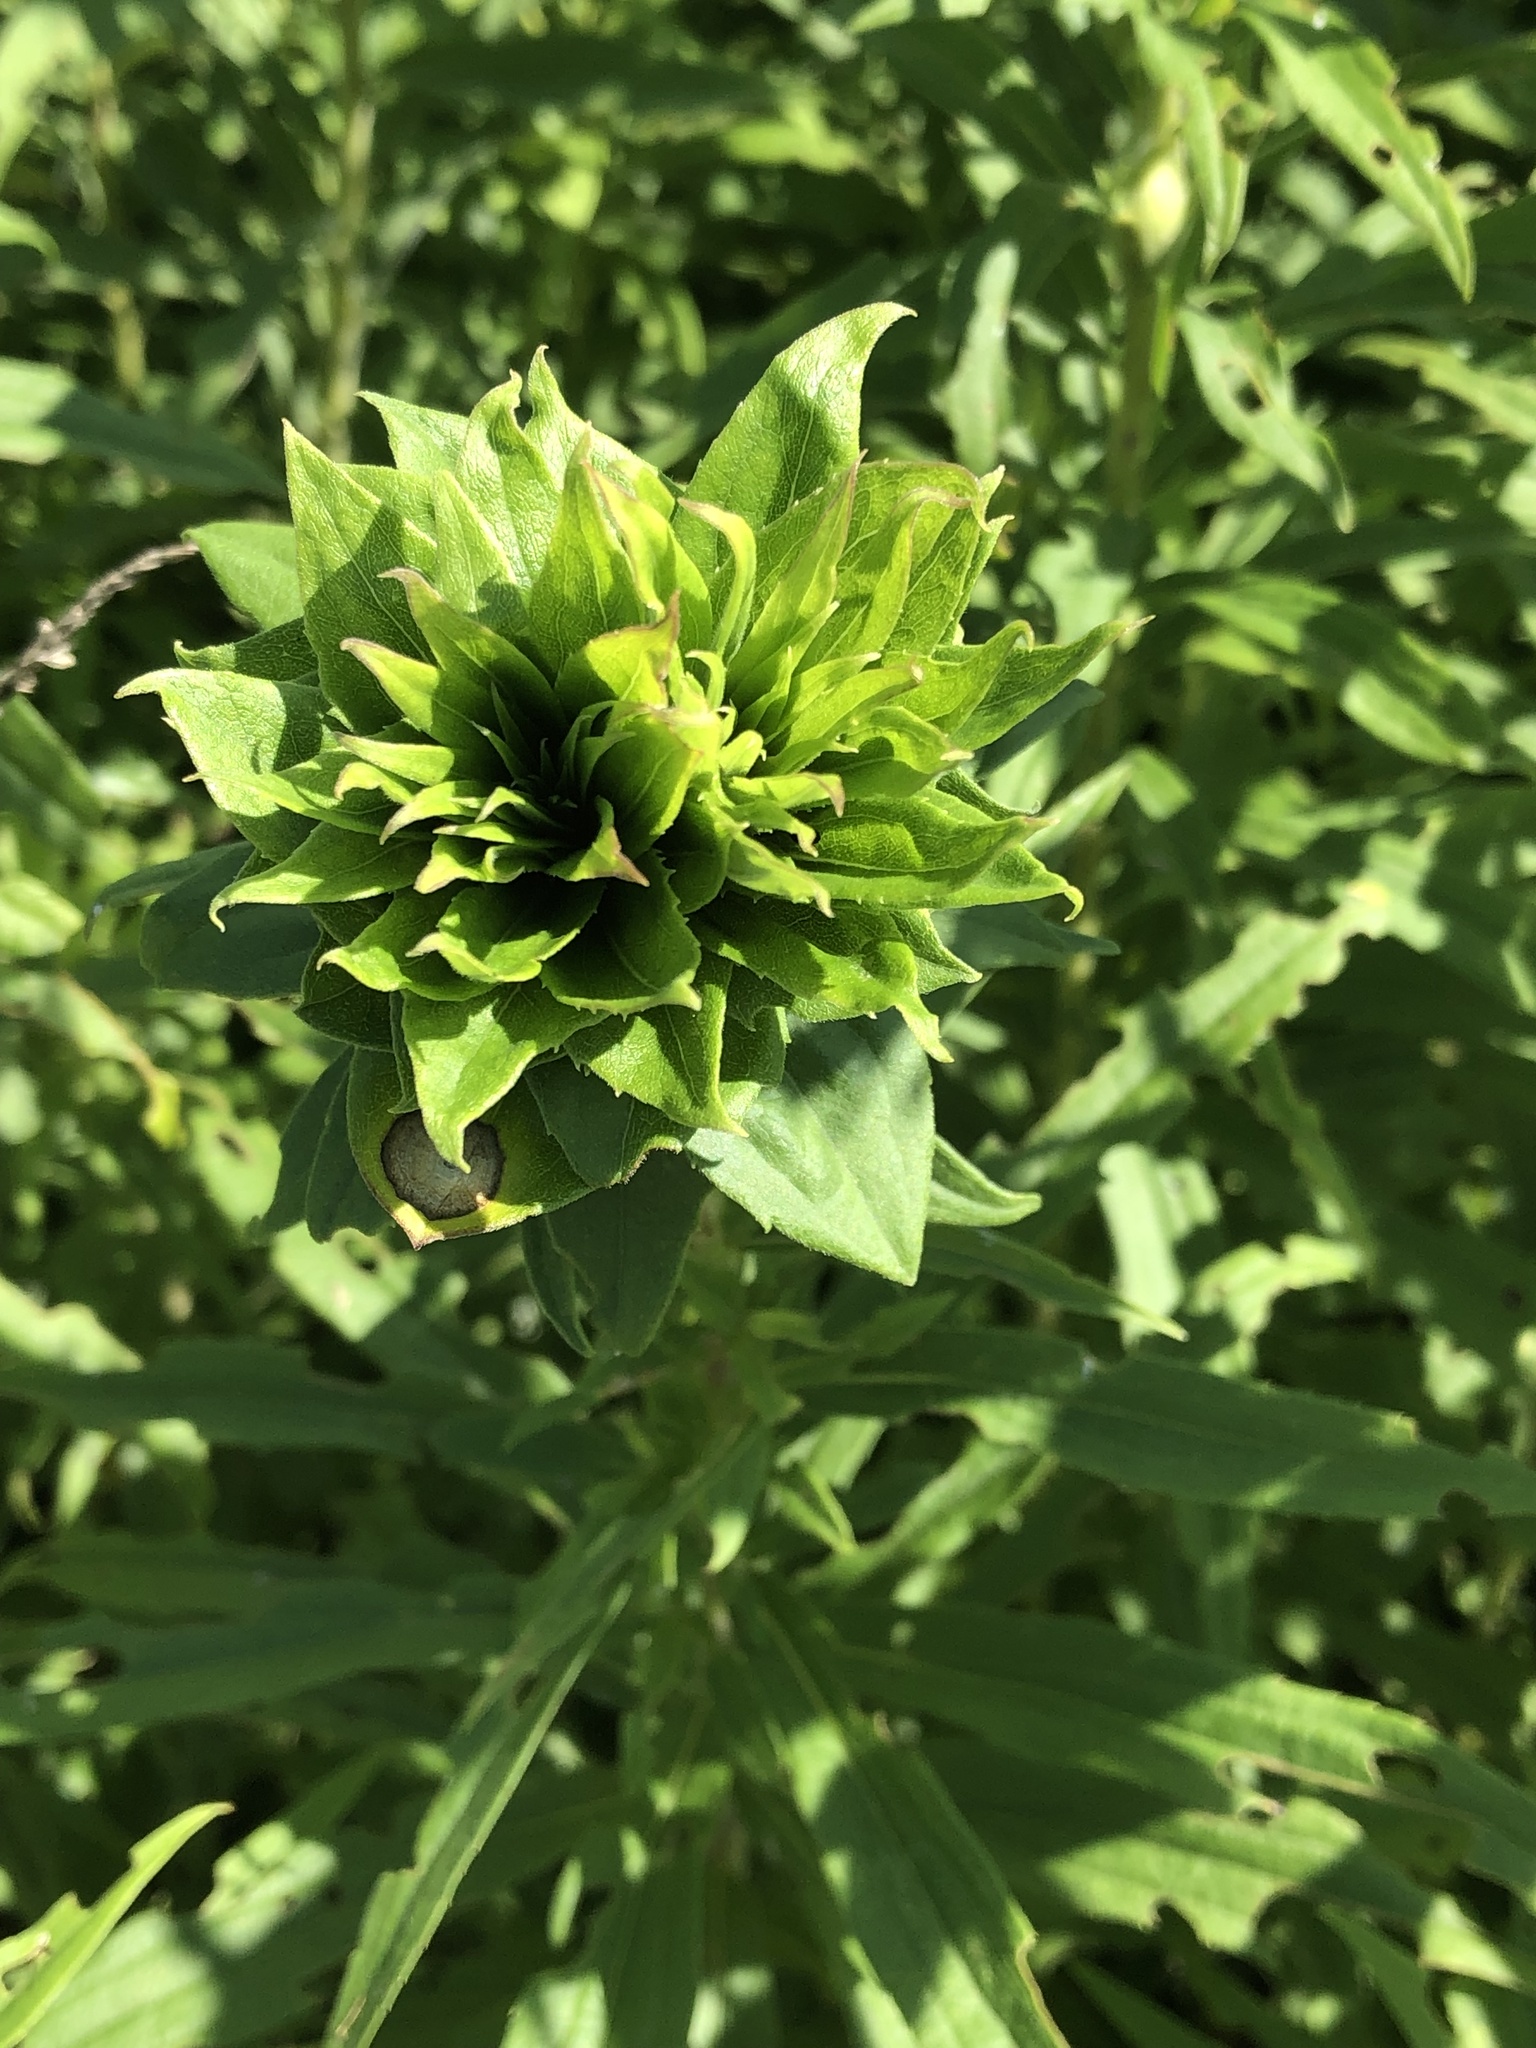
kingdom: Animalia
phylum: Arthropoda
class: Insecta
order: Diptera
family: Cecidomyiidae
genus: Rhopalomyia
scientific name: Rhopalomyia solidaginis
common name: Goldenrod bunch gall midge
